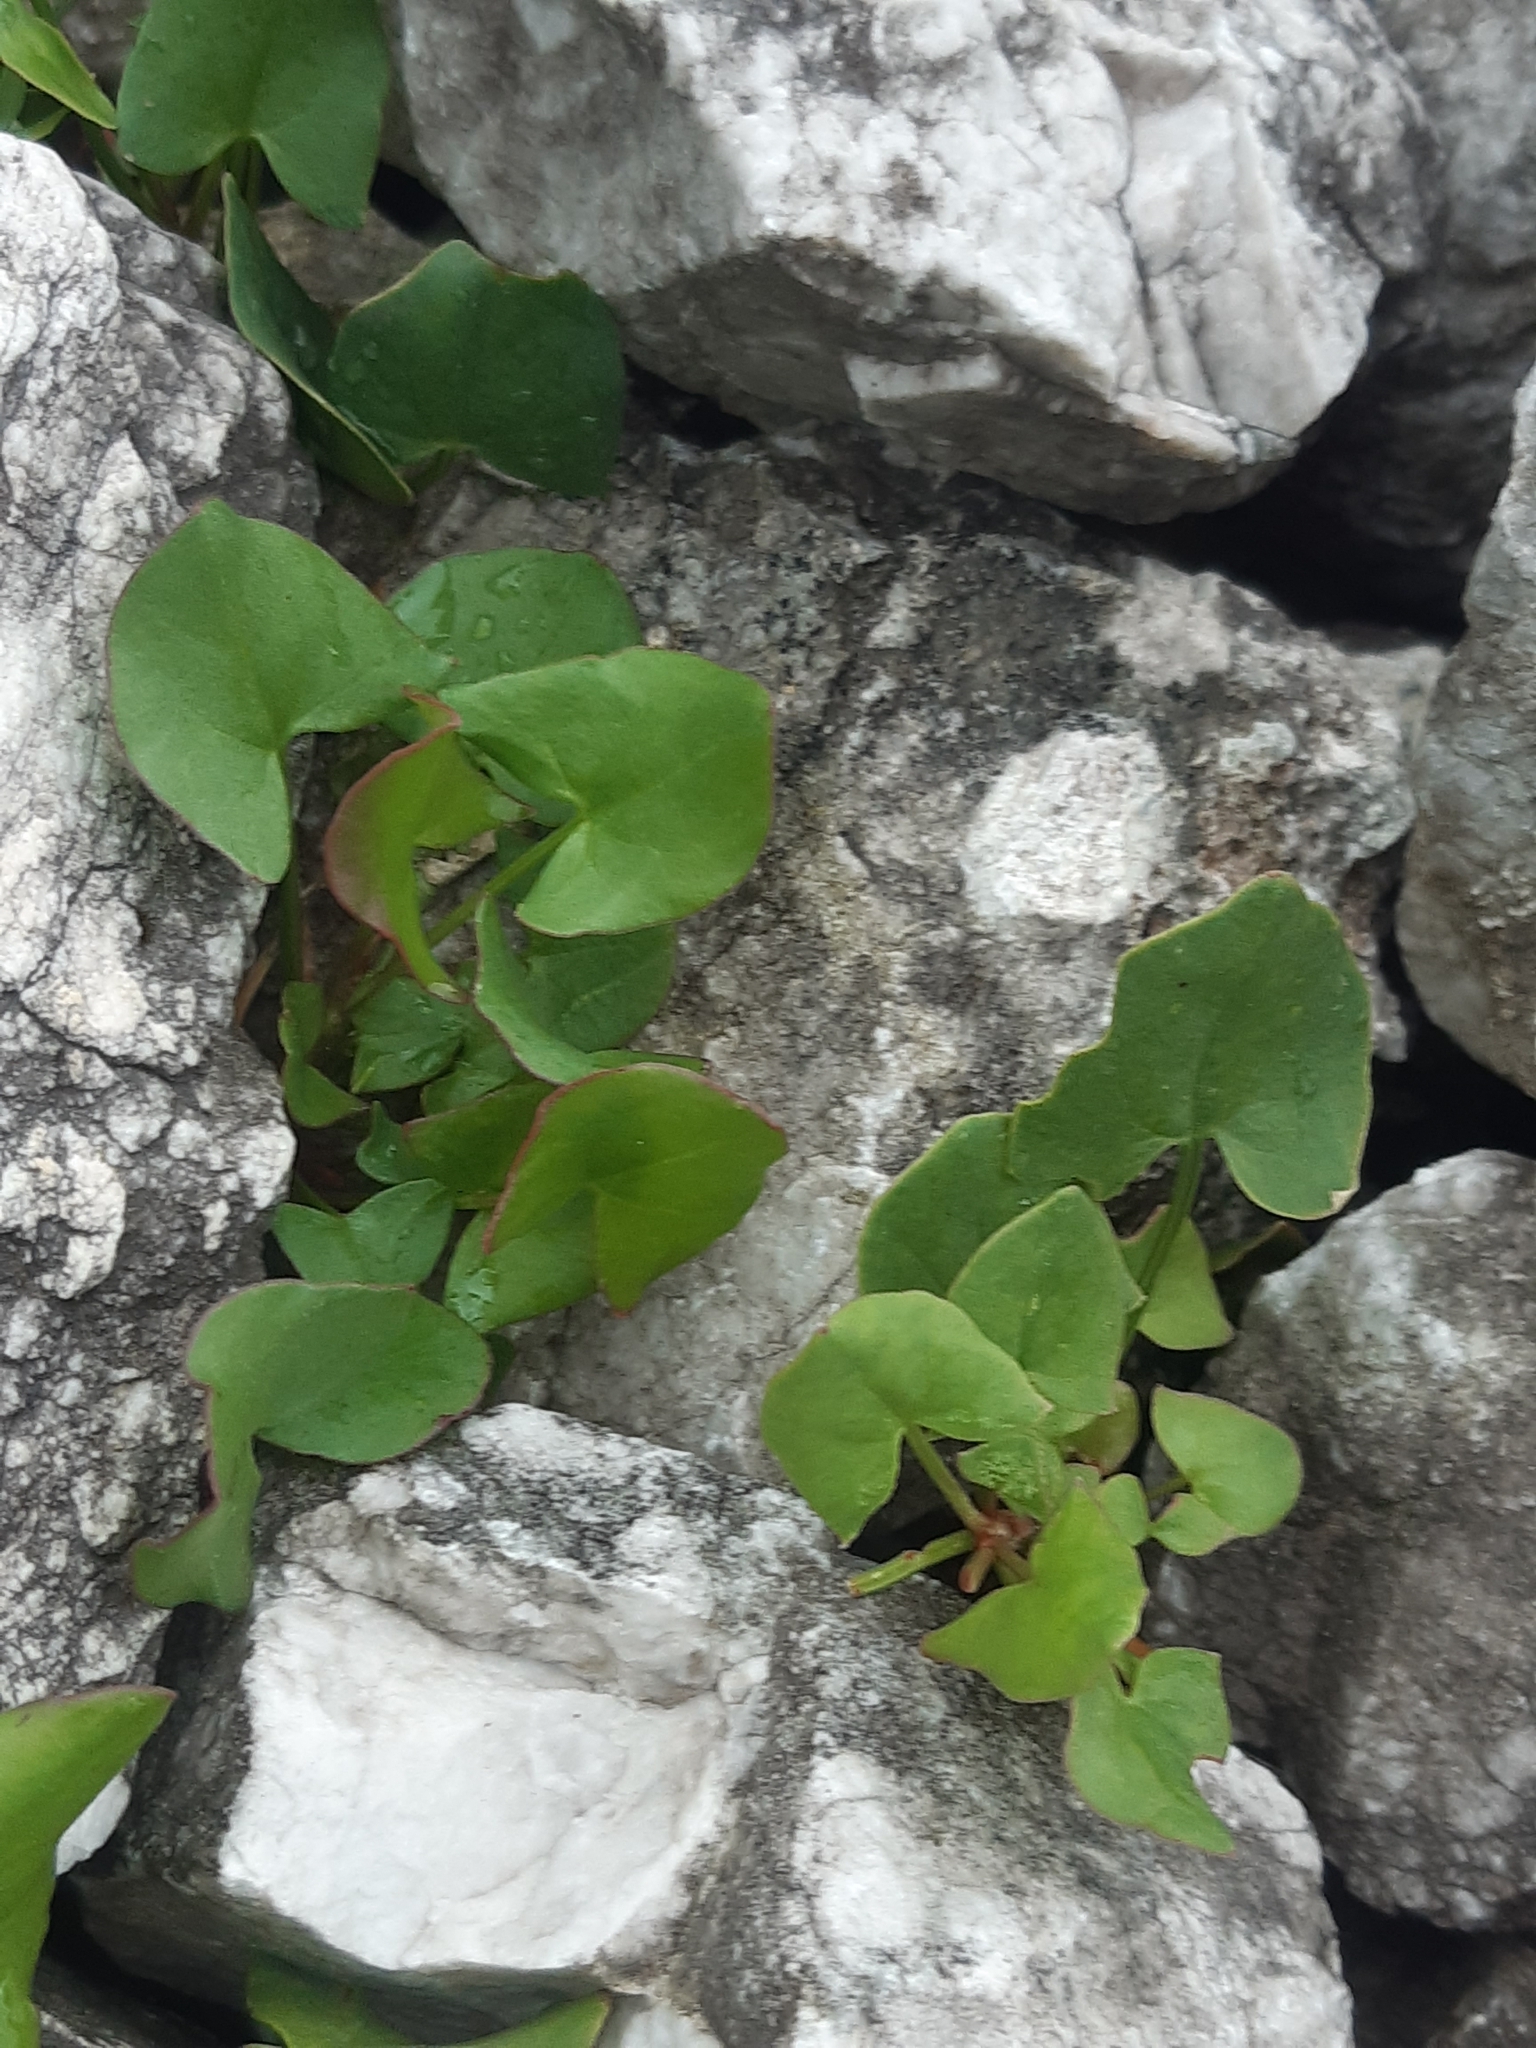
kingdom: Plantae
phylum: Tracheophyta
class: Magnoliopsida
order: Caryophyllales
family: Polygonaceae
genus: Rumex
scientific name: Rumex scutatus
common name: French sorrel
